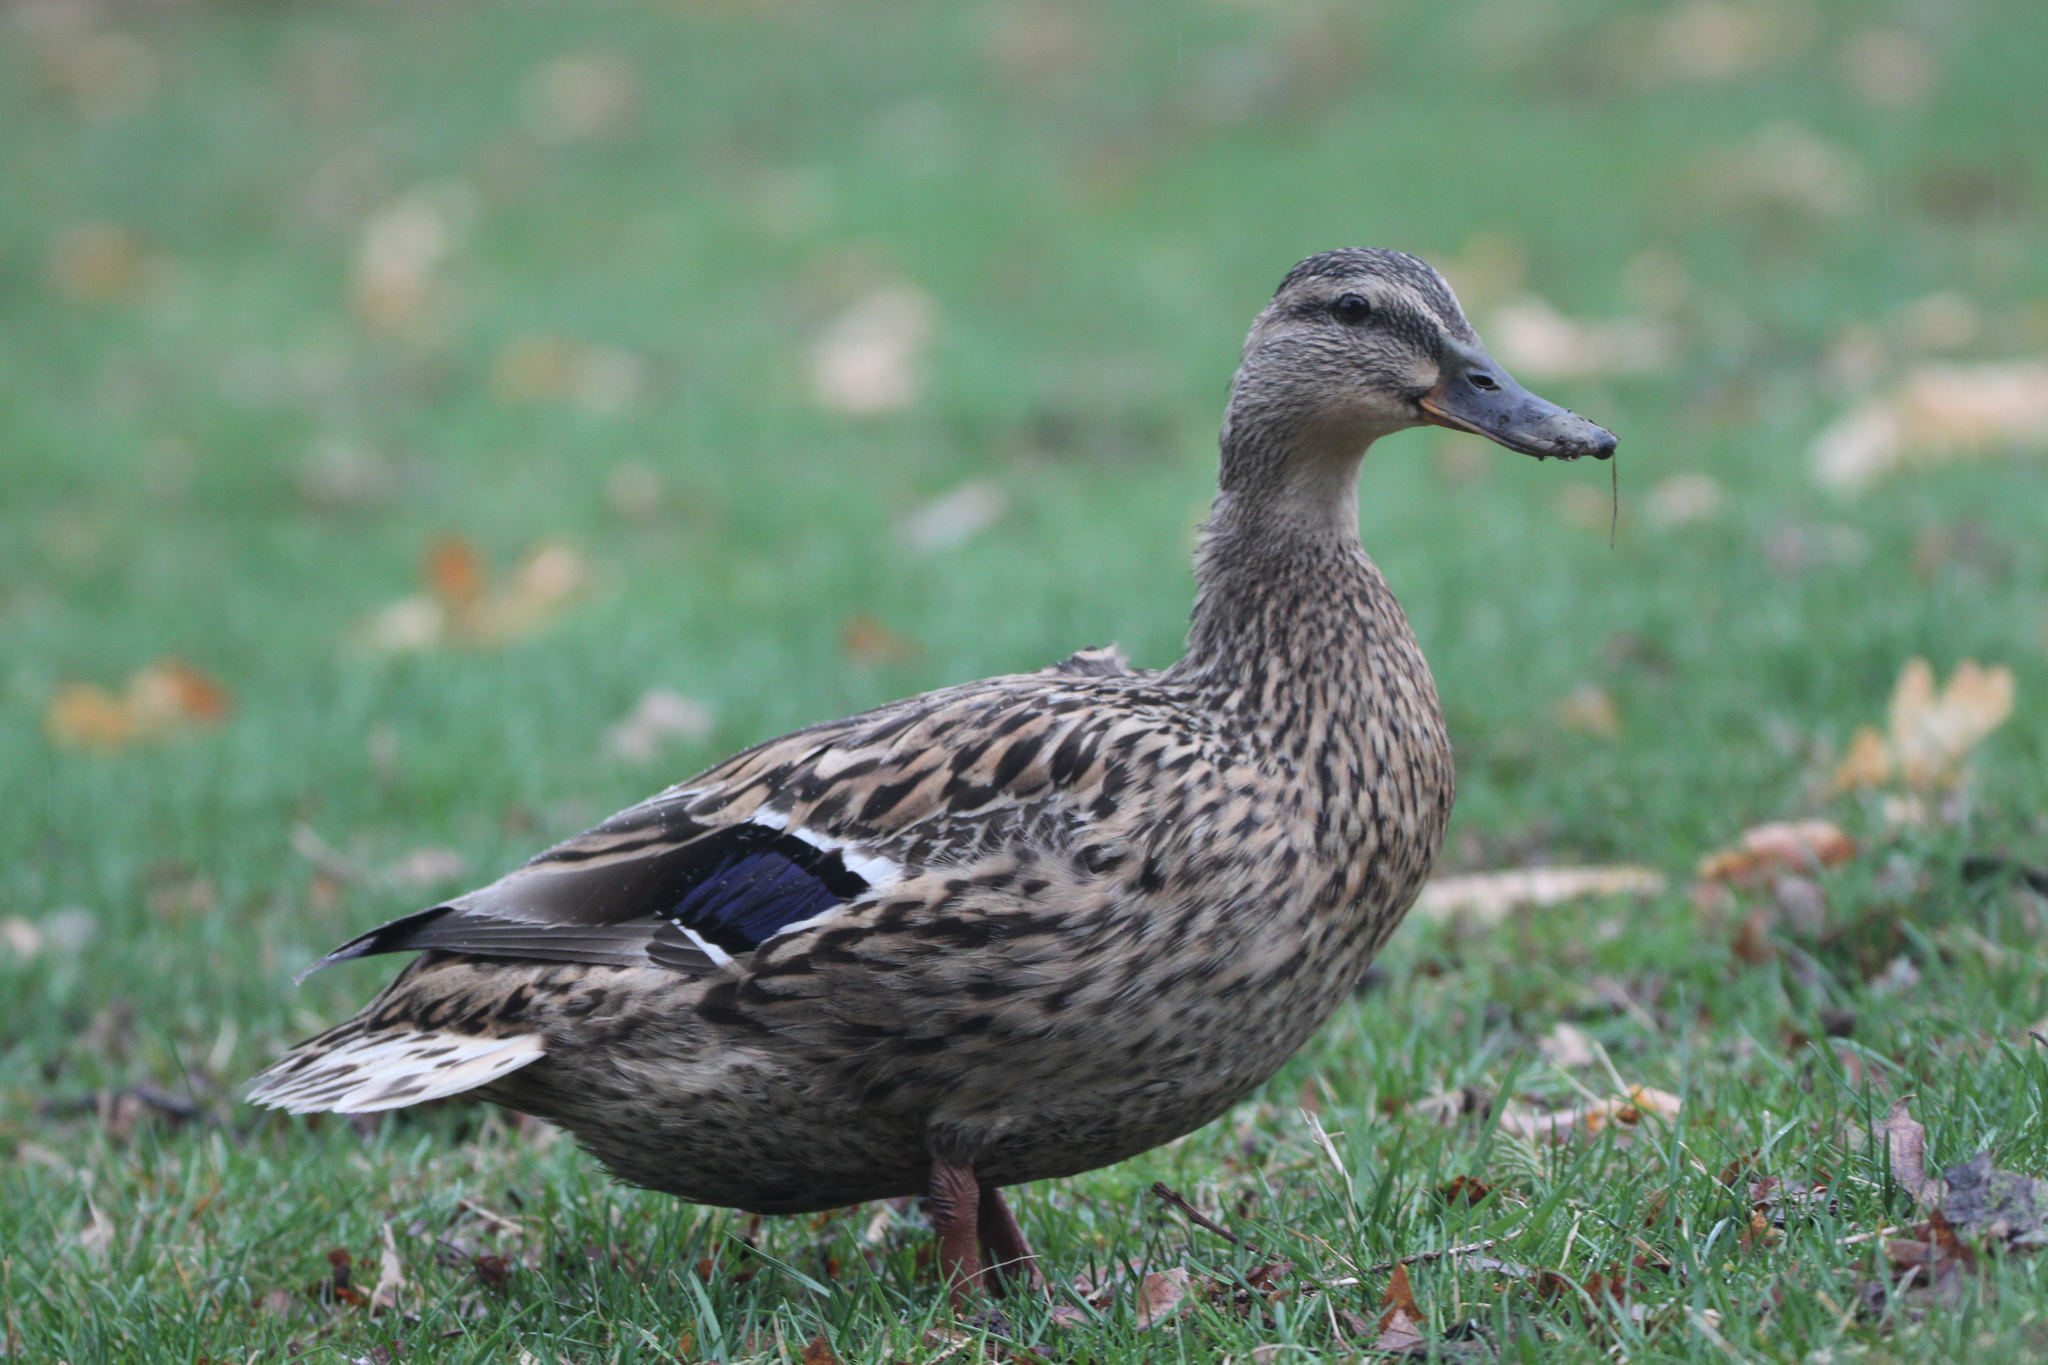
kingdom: Animalia
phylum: Chordata
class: Aves
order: Anseriformes
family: Anatidae
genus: Anas
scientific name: Anas platyrhynchos
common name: Mallard
